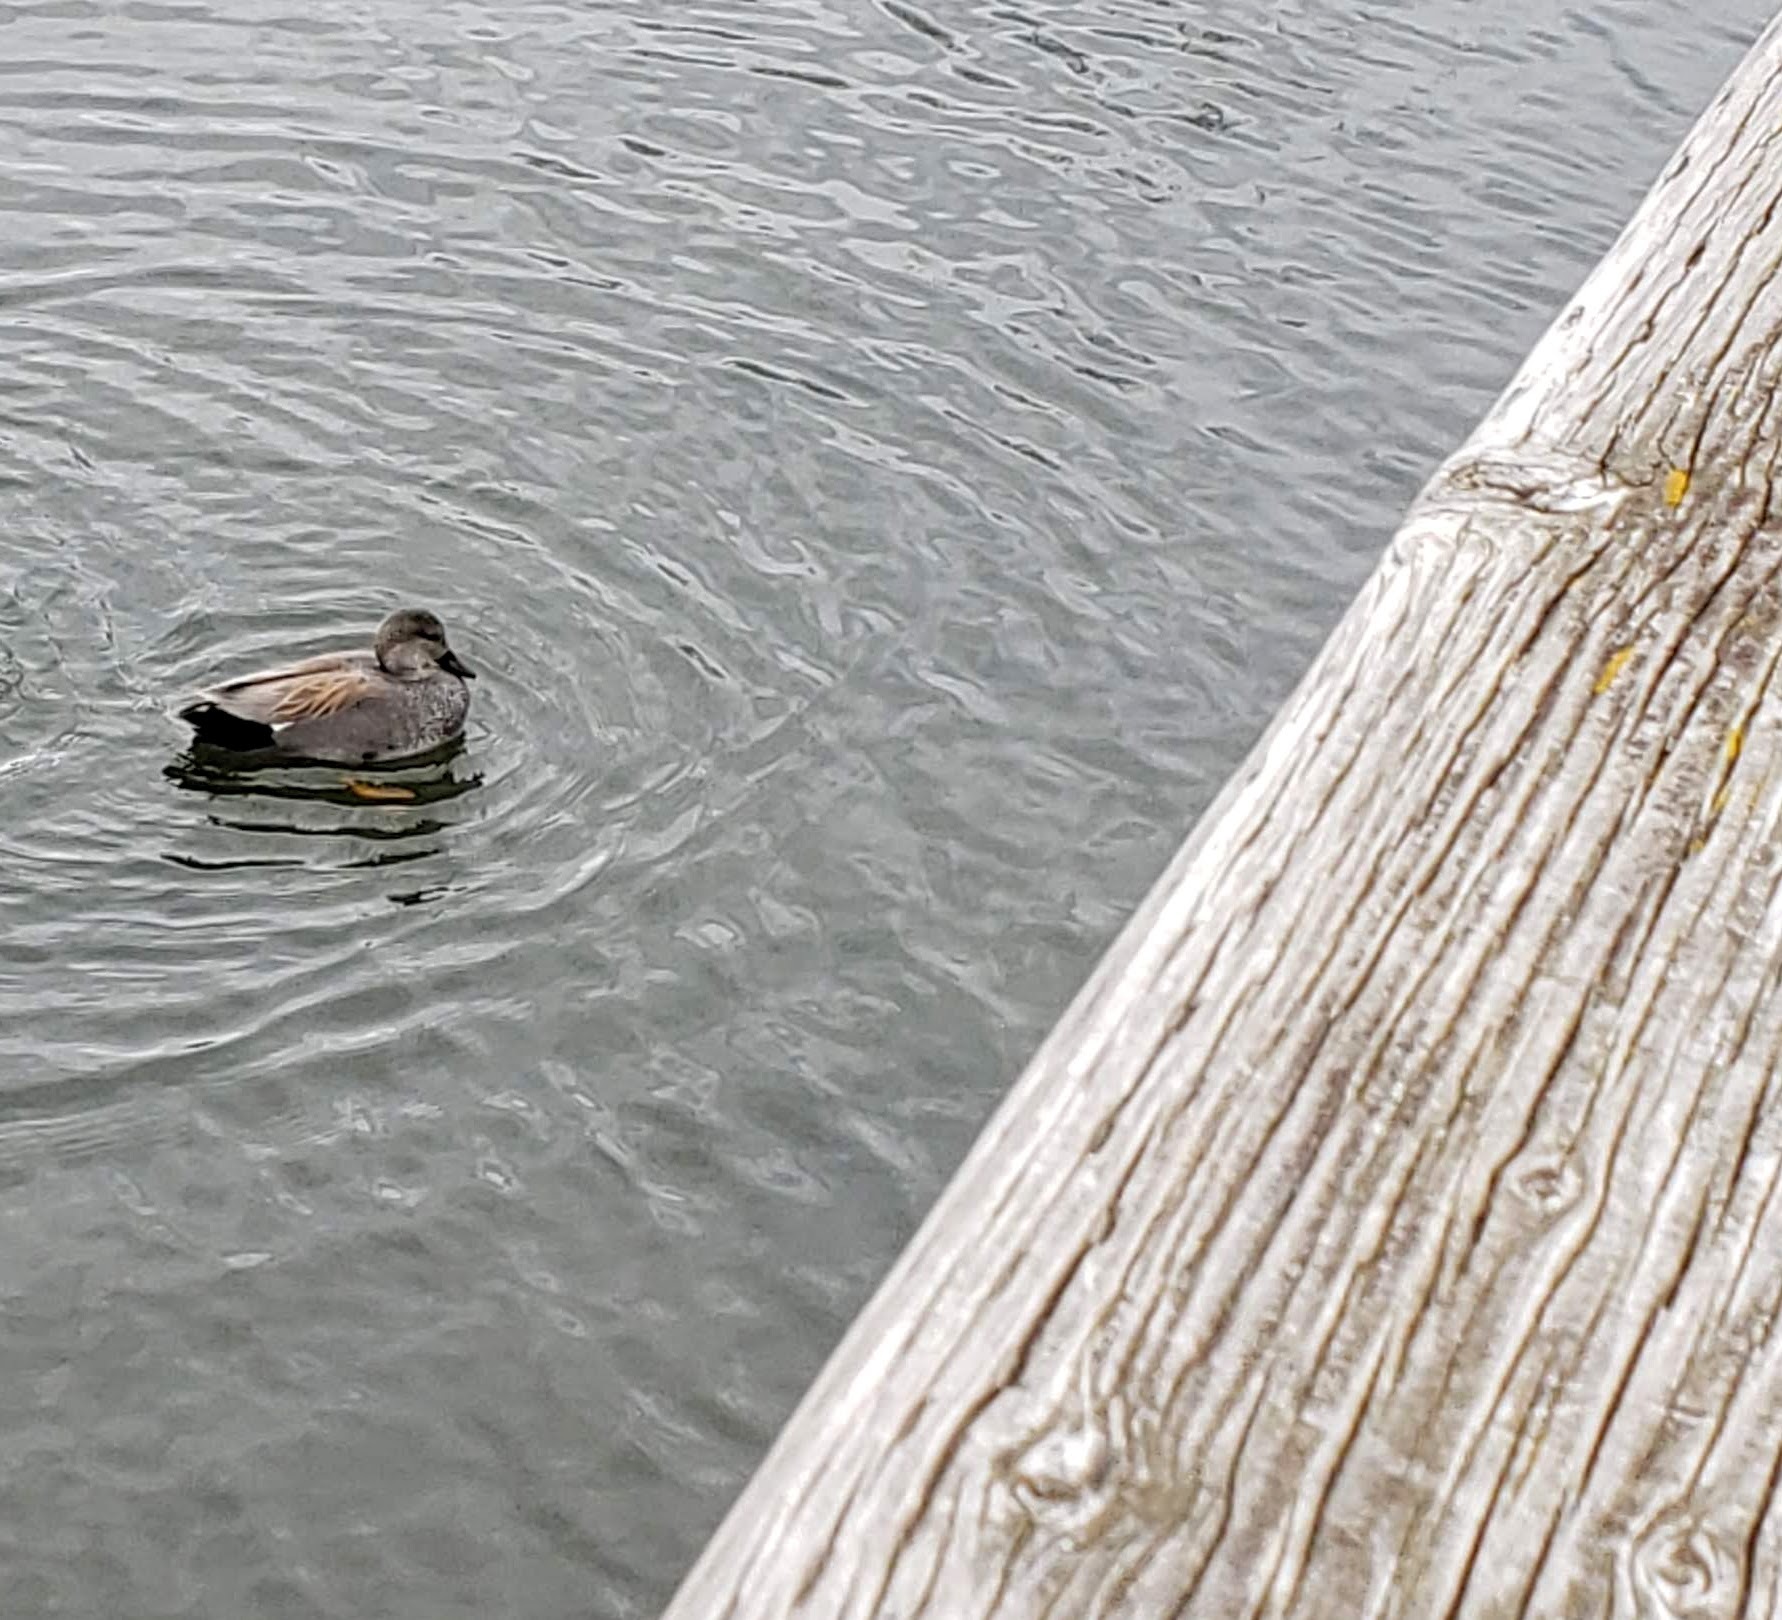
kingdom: Animalia
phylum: Chordata
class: Aves
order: Anseriformes
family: Anatidae
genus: Mareca
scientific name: Mareca strepera
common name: Gadwall
